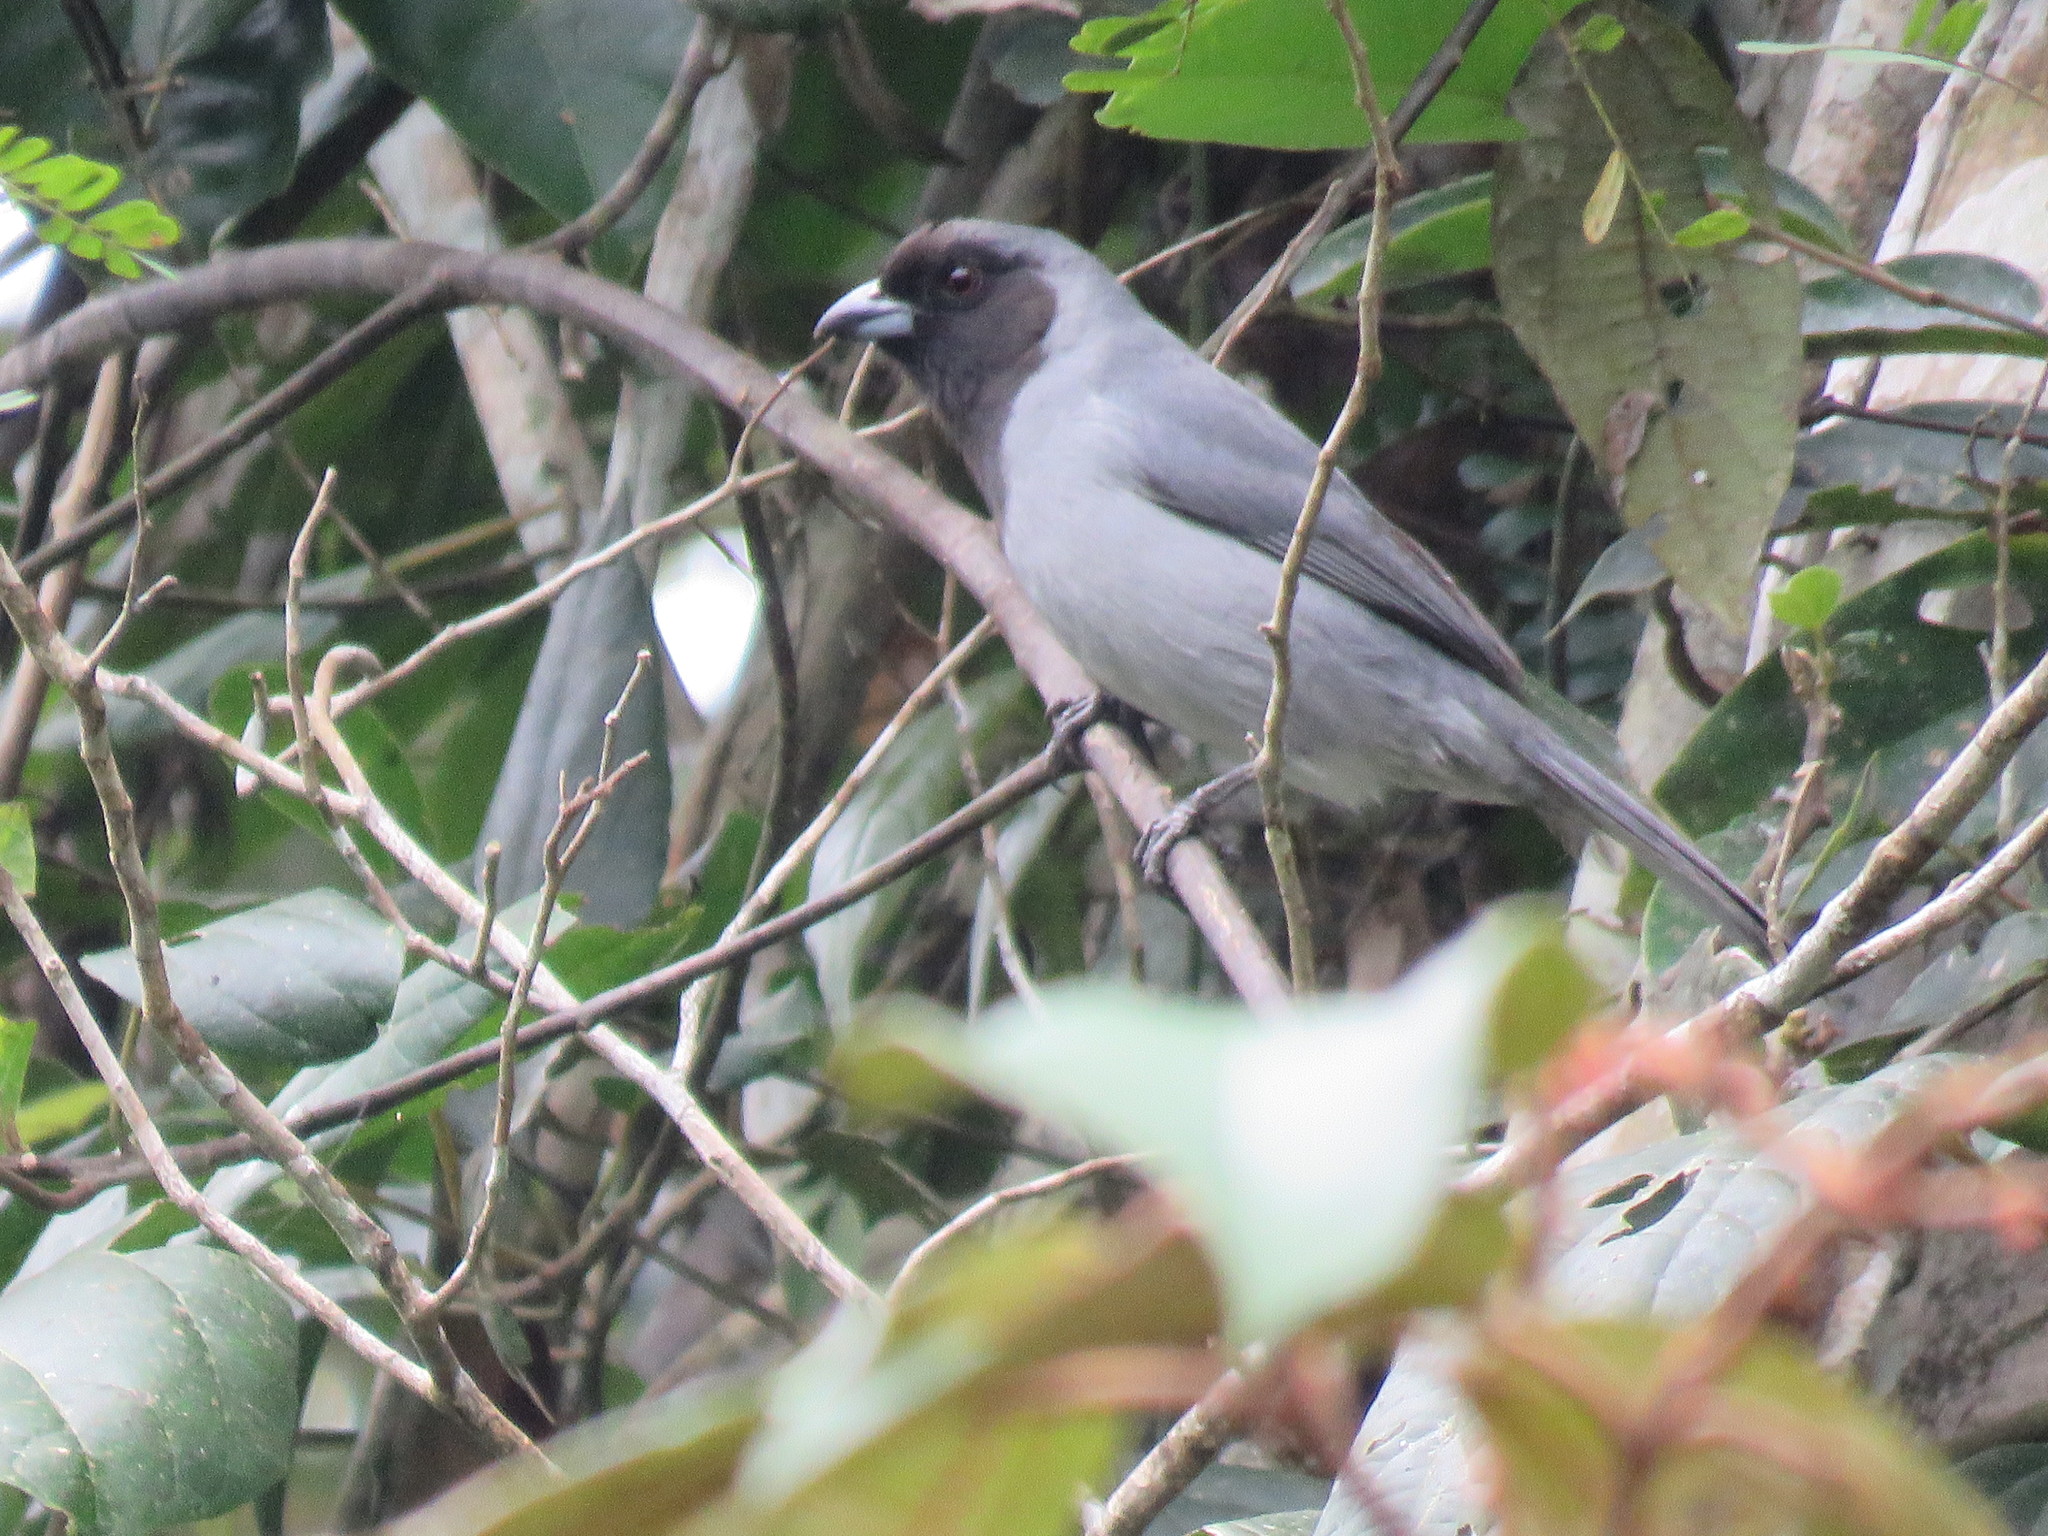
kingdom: Animalia
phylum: Chordata
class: Aves
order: Passeriformes
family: Thraupidae
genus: Schistochlamys
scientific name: Schistochlamys melanopis
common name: Black-faced tanager
